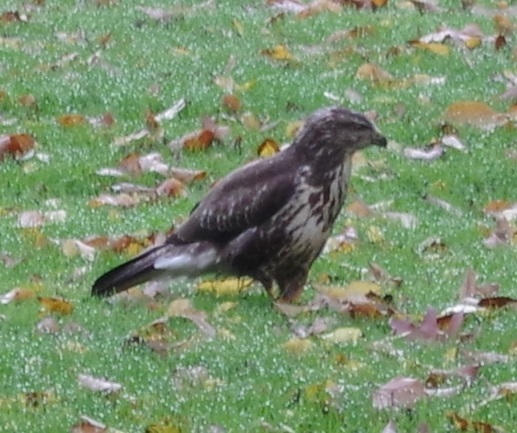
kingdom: Animalia
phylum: Chordata
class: Aves
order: Accipitriformes
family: Accipitridae
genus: Buteo
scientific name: Buteo buteo
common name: Common buzzard
